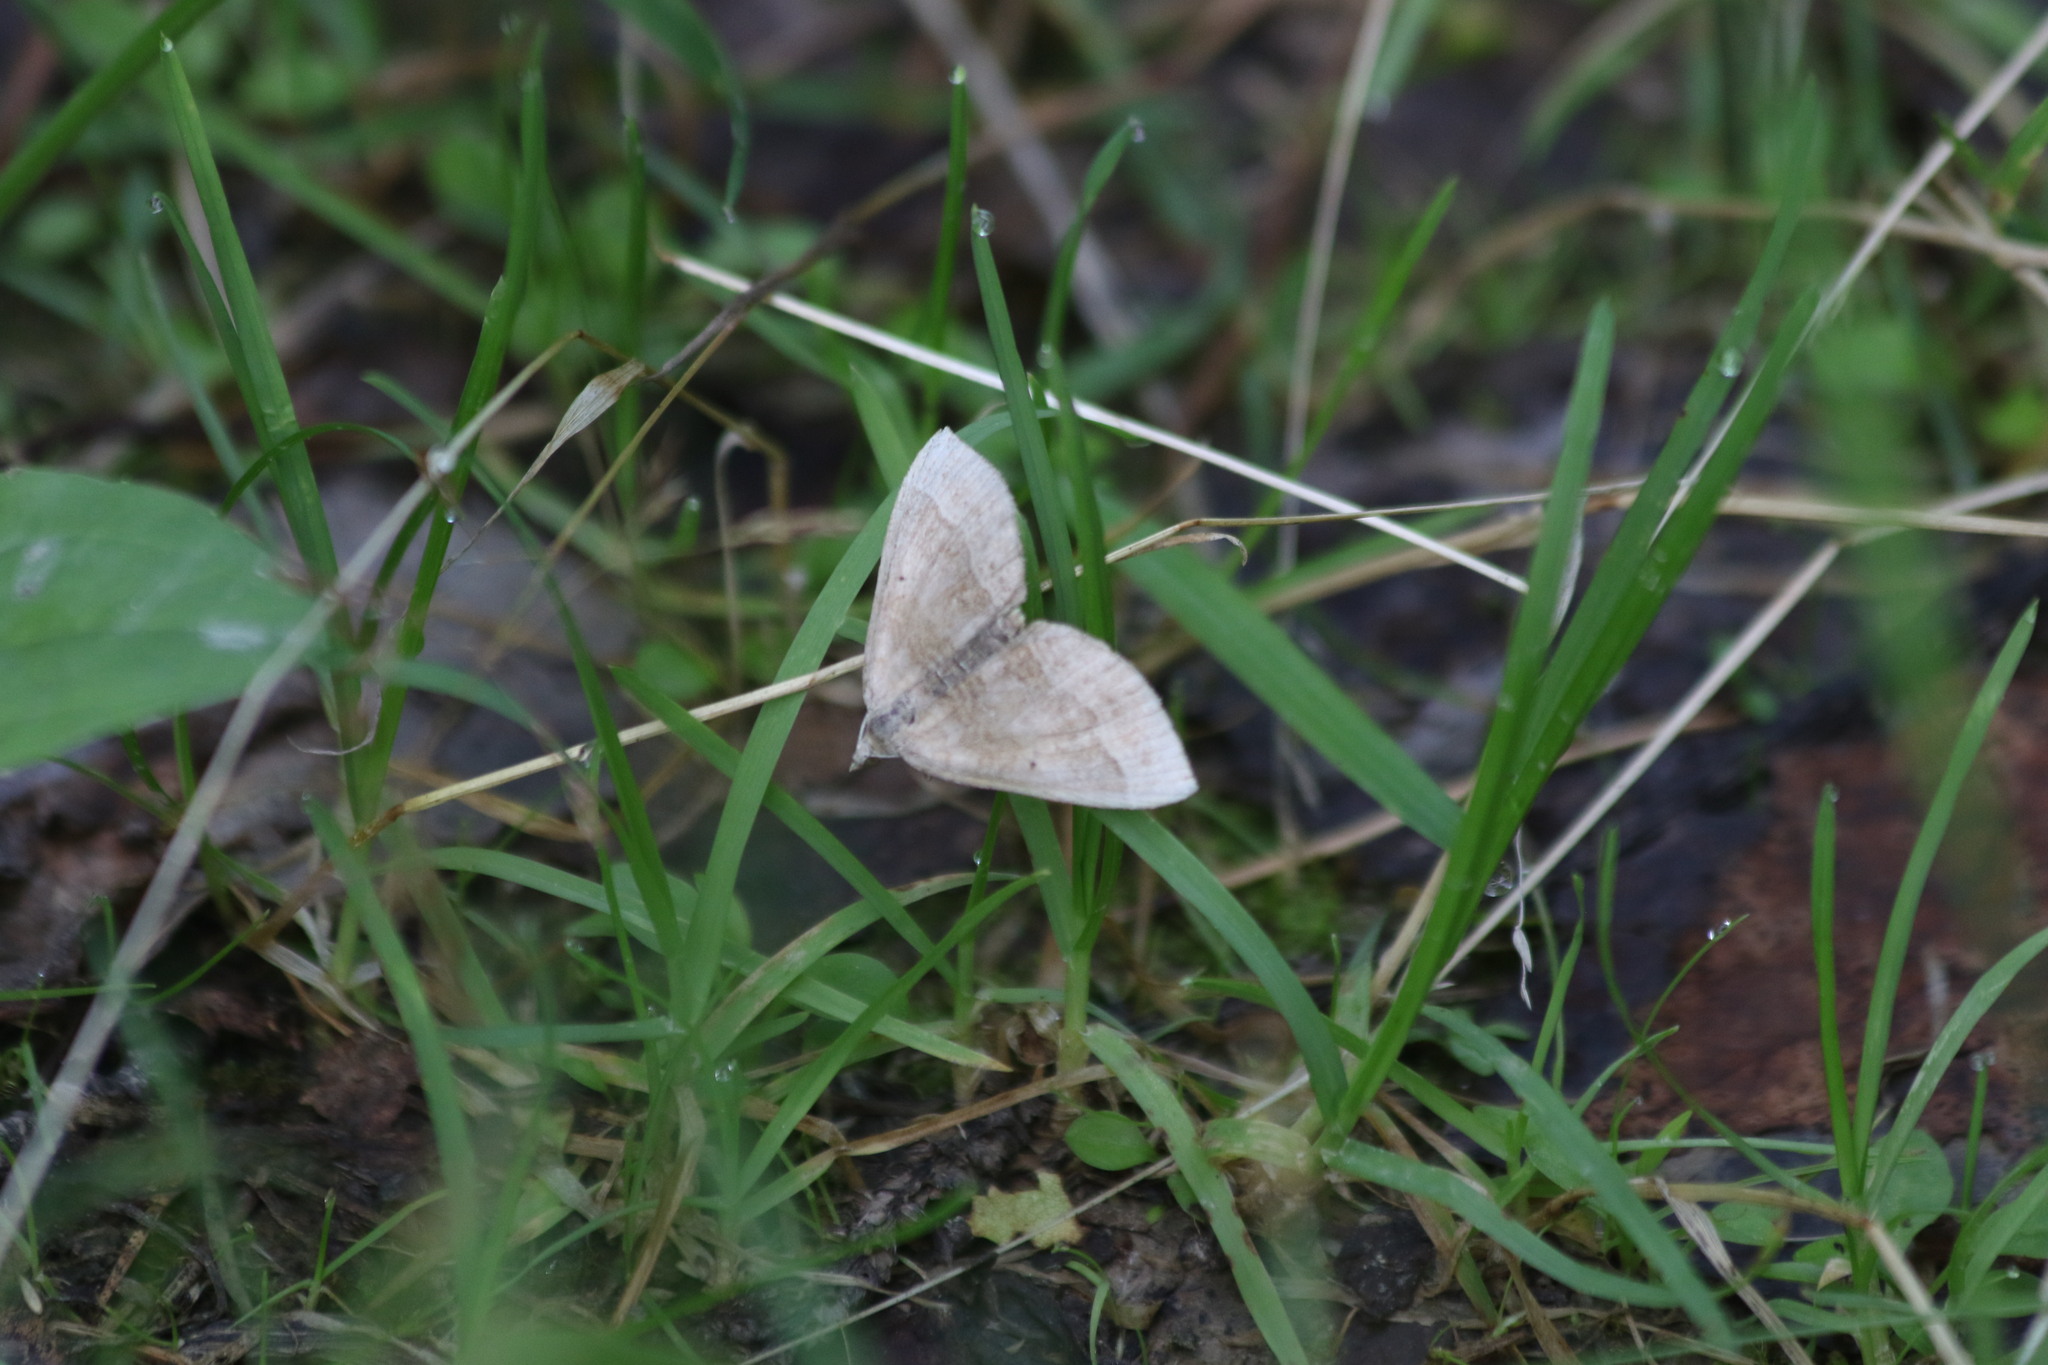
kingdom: Animalia
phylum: Arthropoda
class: Insecta
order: Lepidoptera
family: Geometridae
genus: Scotopteryx
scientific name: Scotopteryx chenopodiata
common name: Shaded broad-bar
